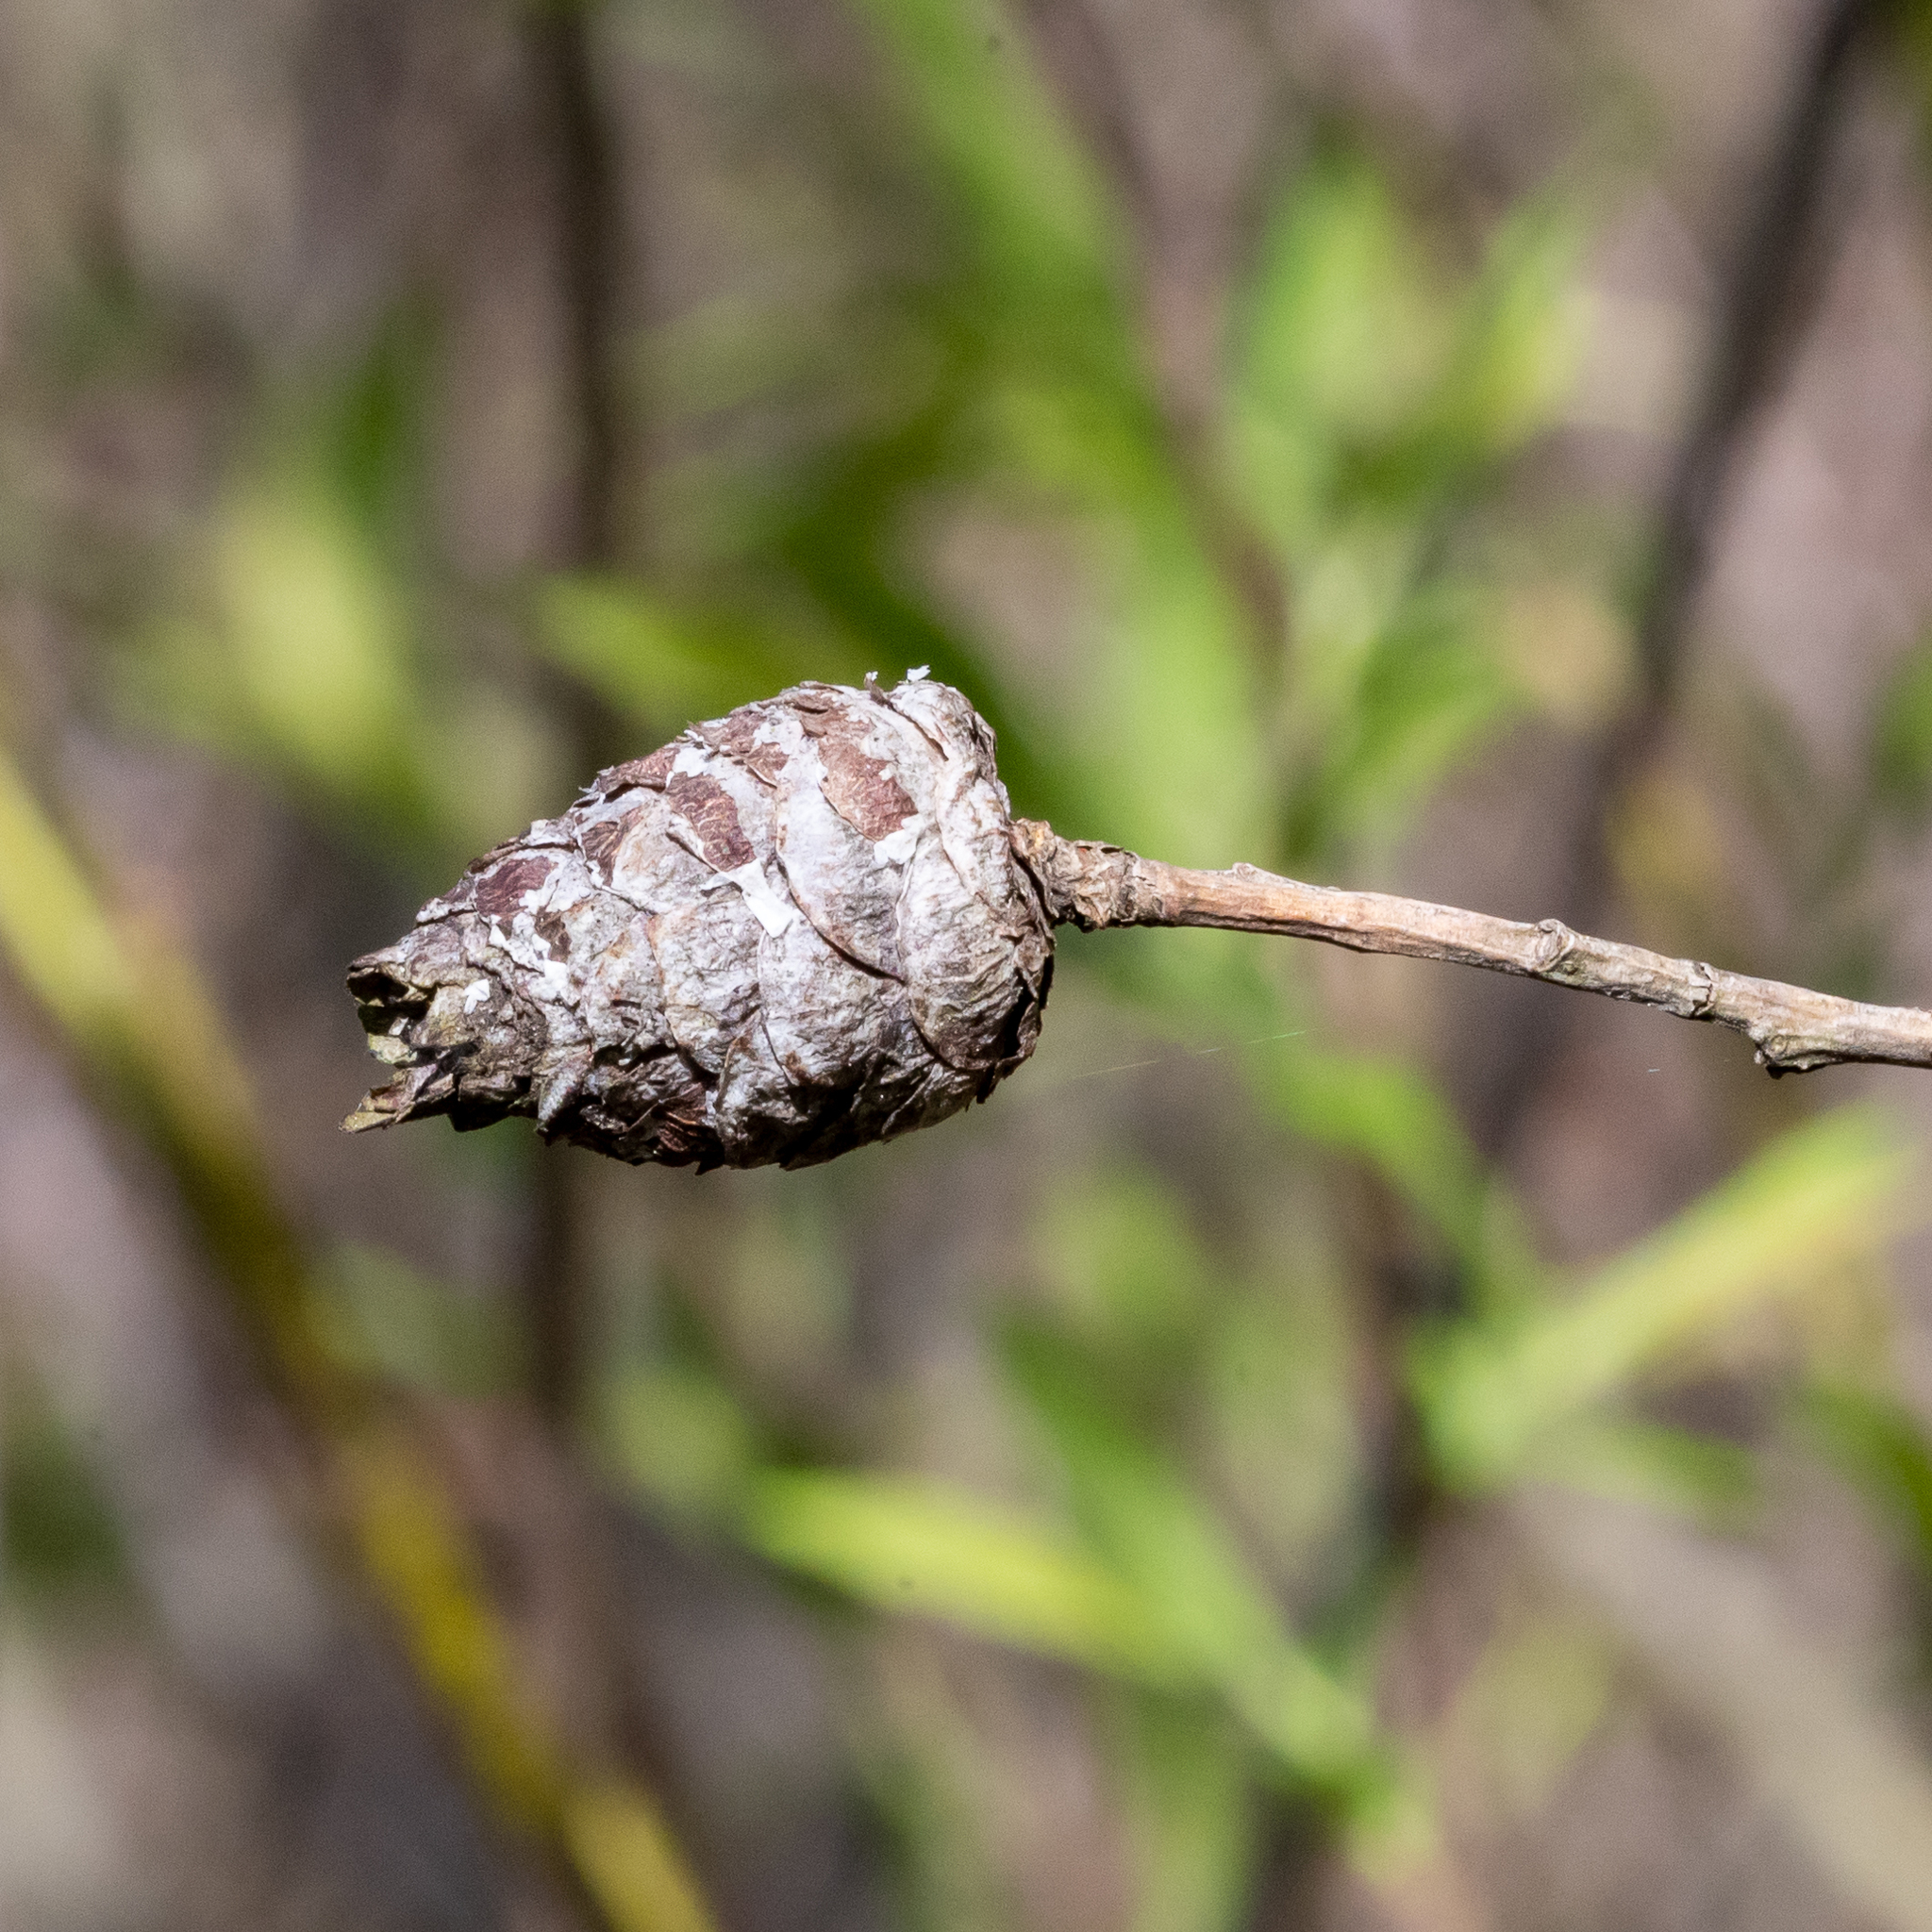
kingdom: Animalia
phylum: Arthropoda
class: Insecta
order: Diptera
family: Cecidomyiidae
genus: Rabdophaga
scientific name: Rabdophaga strobiloides
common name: Willow pinecone gall midge
